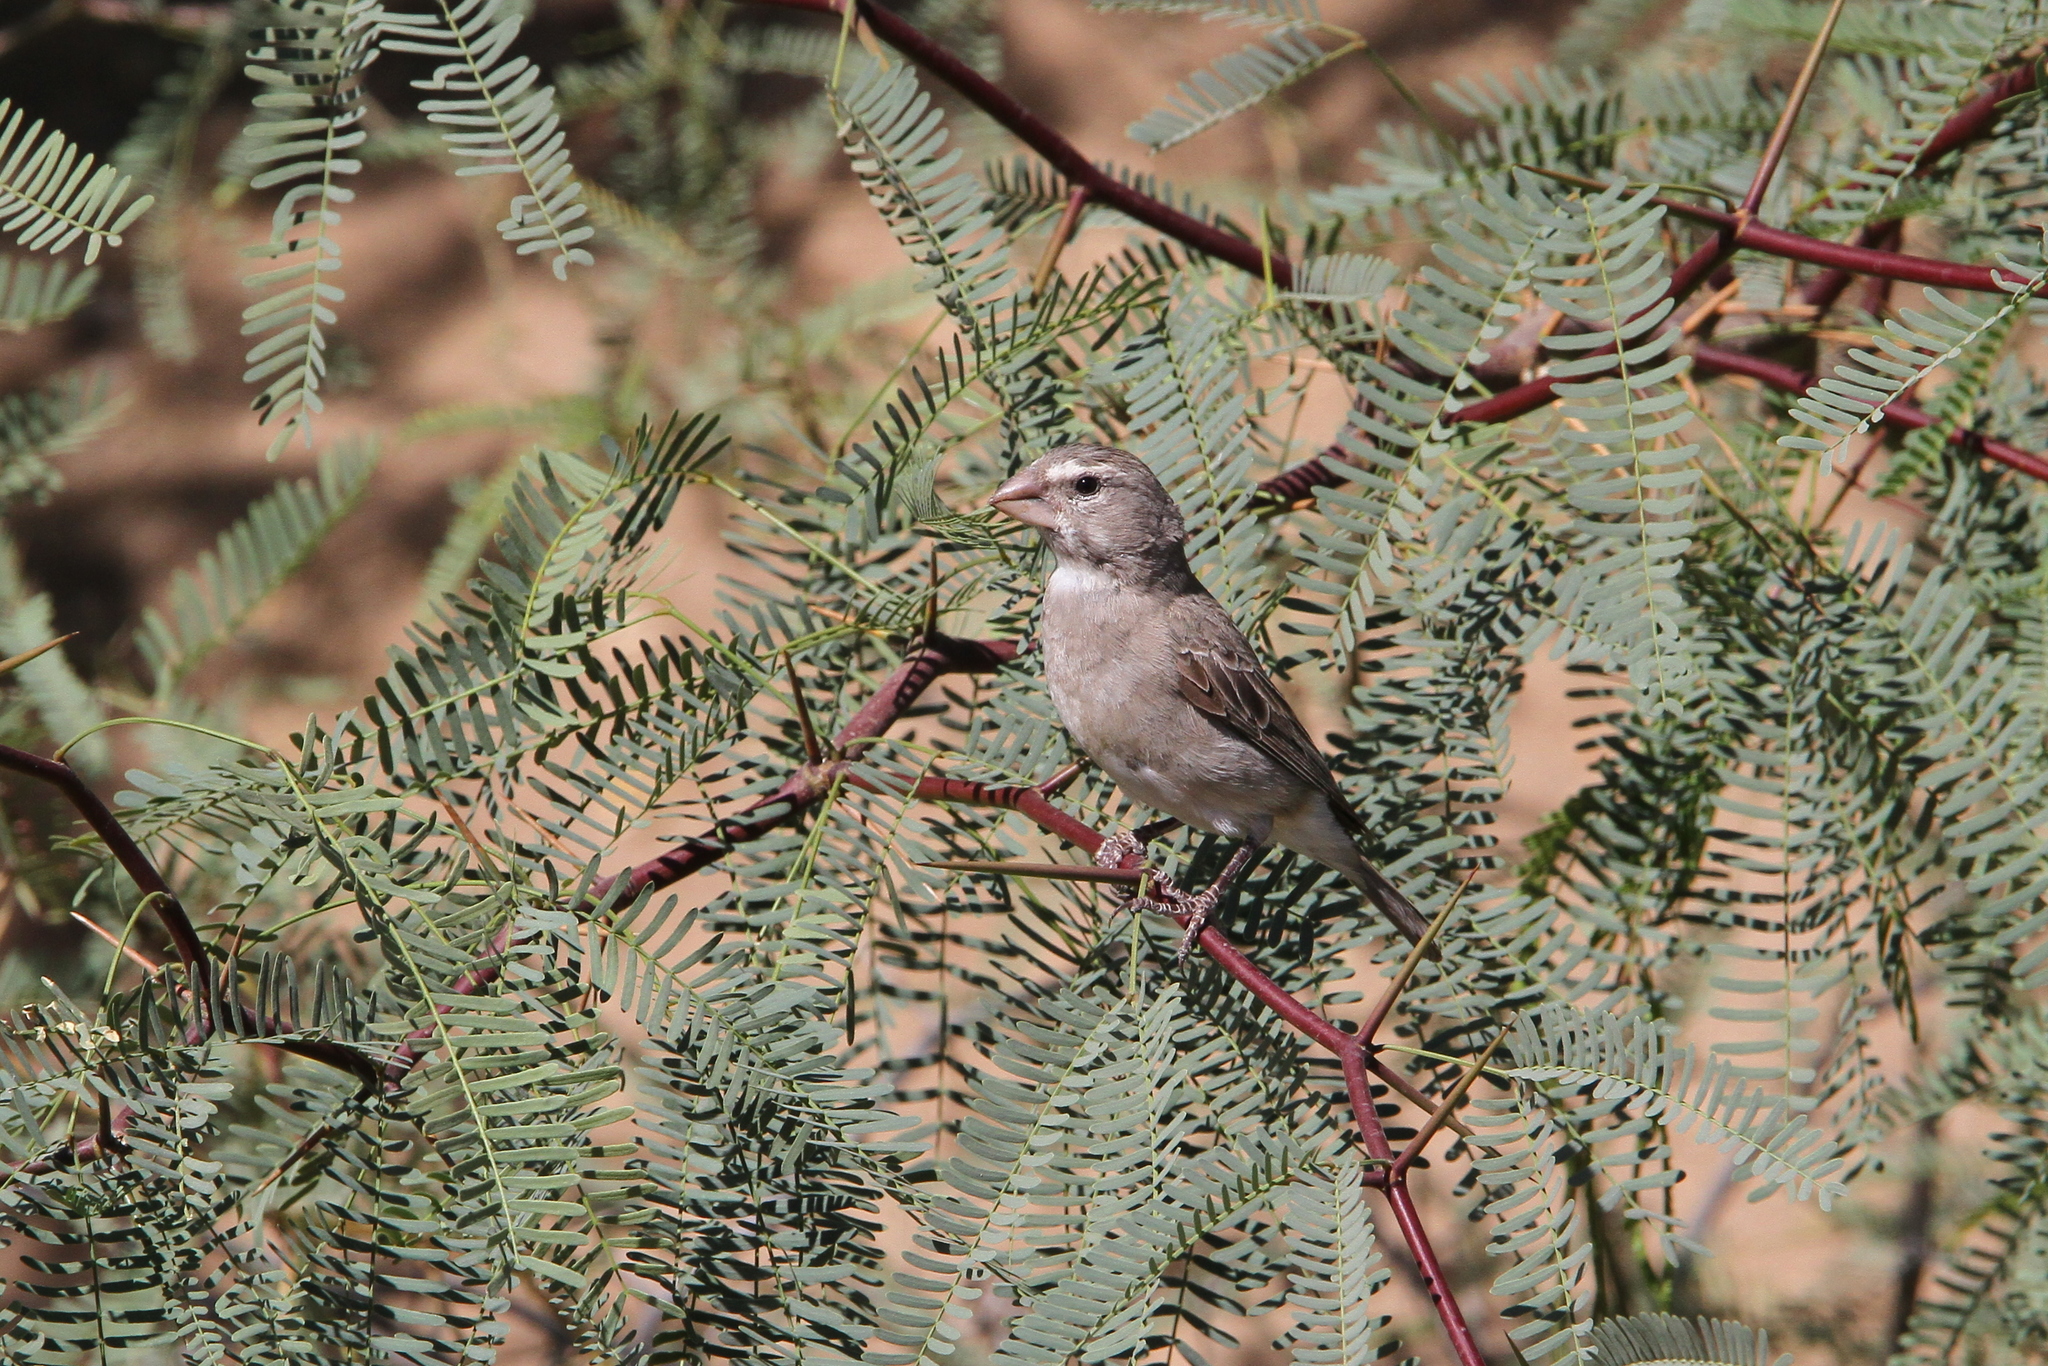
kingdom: Animalia
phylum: Chordata
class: Aves
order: Passeriformes
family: Fringillidae
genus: Crithagra
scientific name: Crithagra albogularis
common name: White-throated canary
